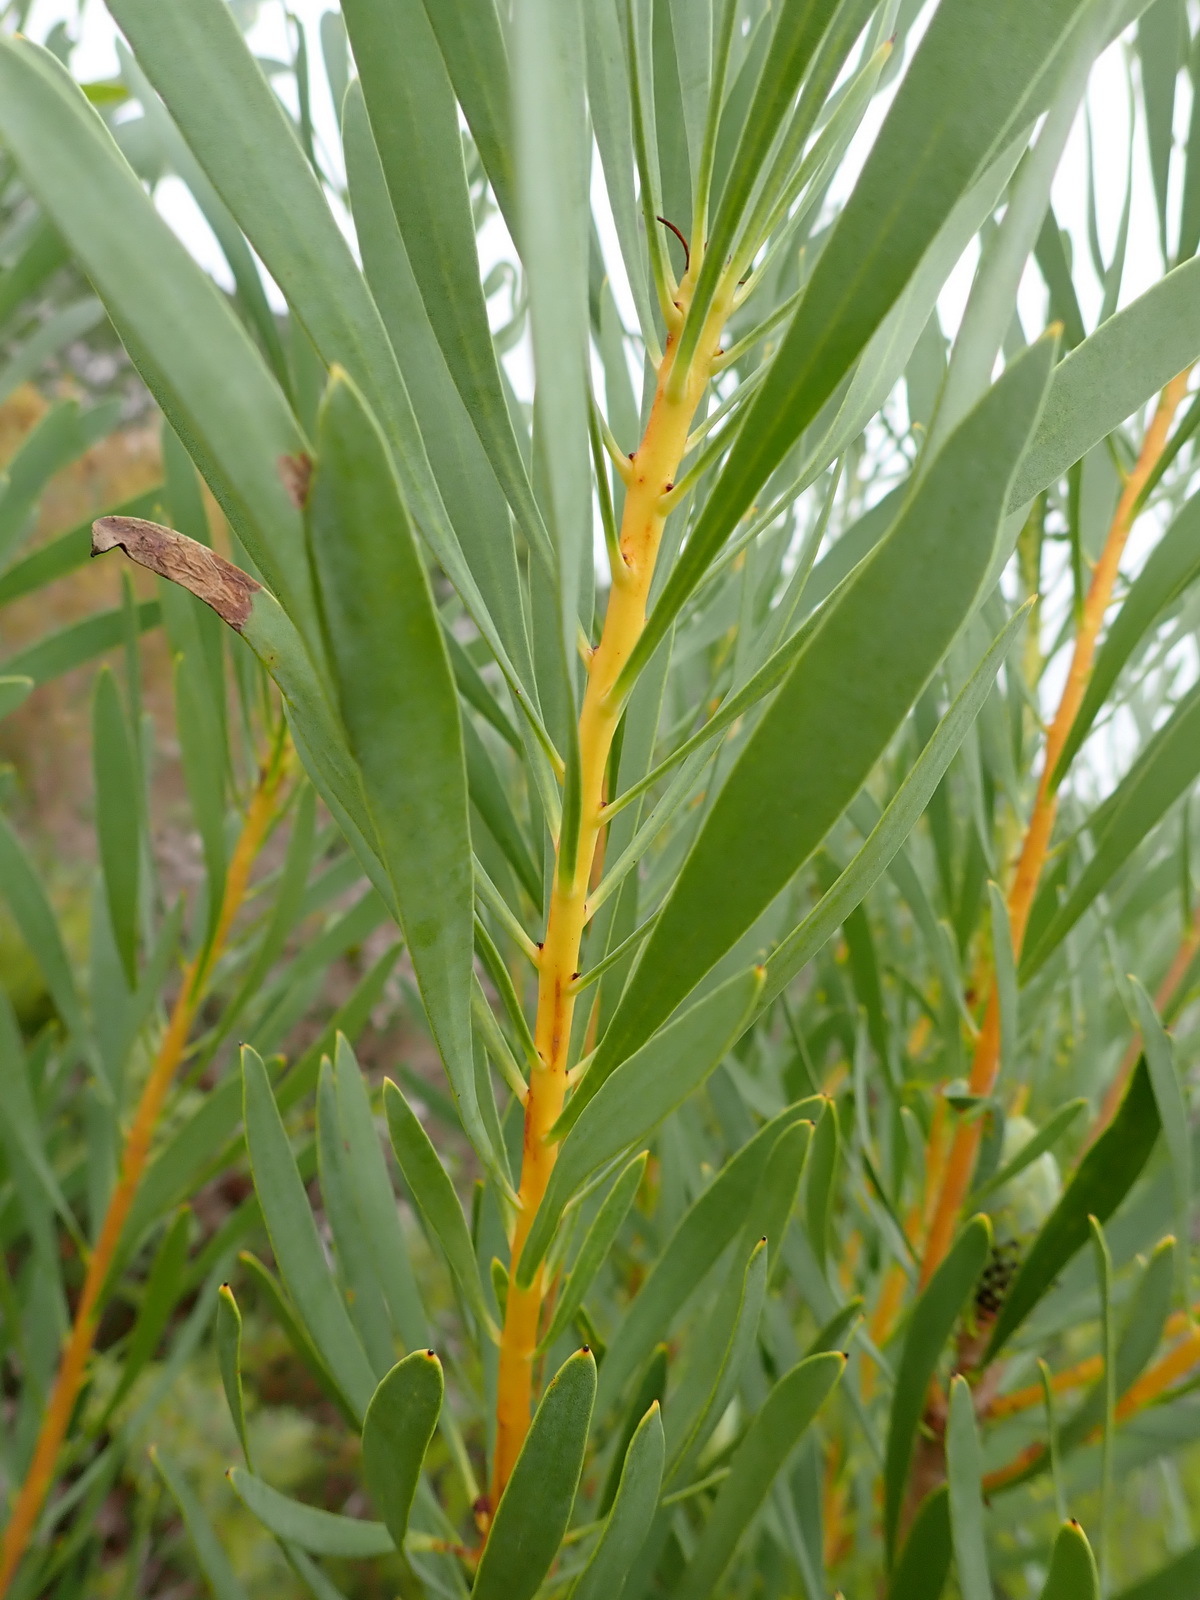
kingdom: Plantae
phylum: Tracheophyta
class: Magnoliopsida
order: Proteales
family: Proteaceae
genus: Protea
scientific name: Protea repens
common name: Sugarbush
